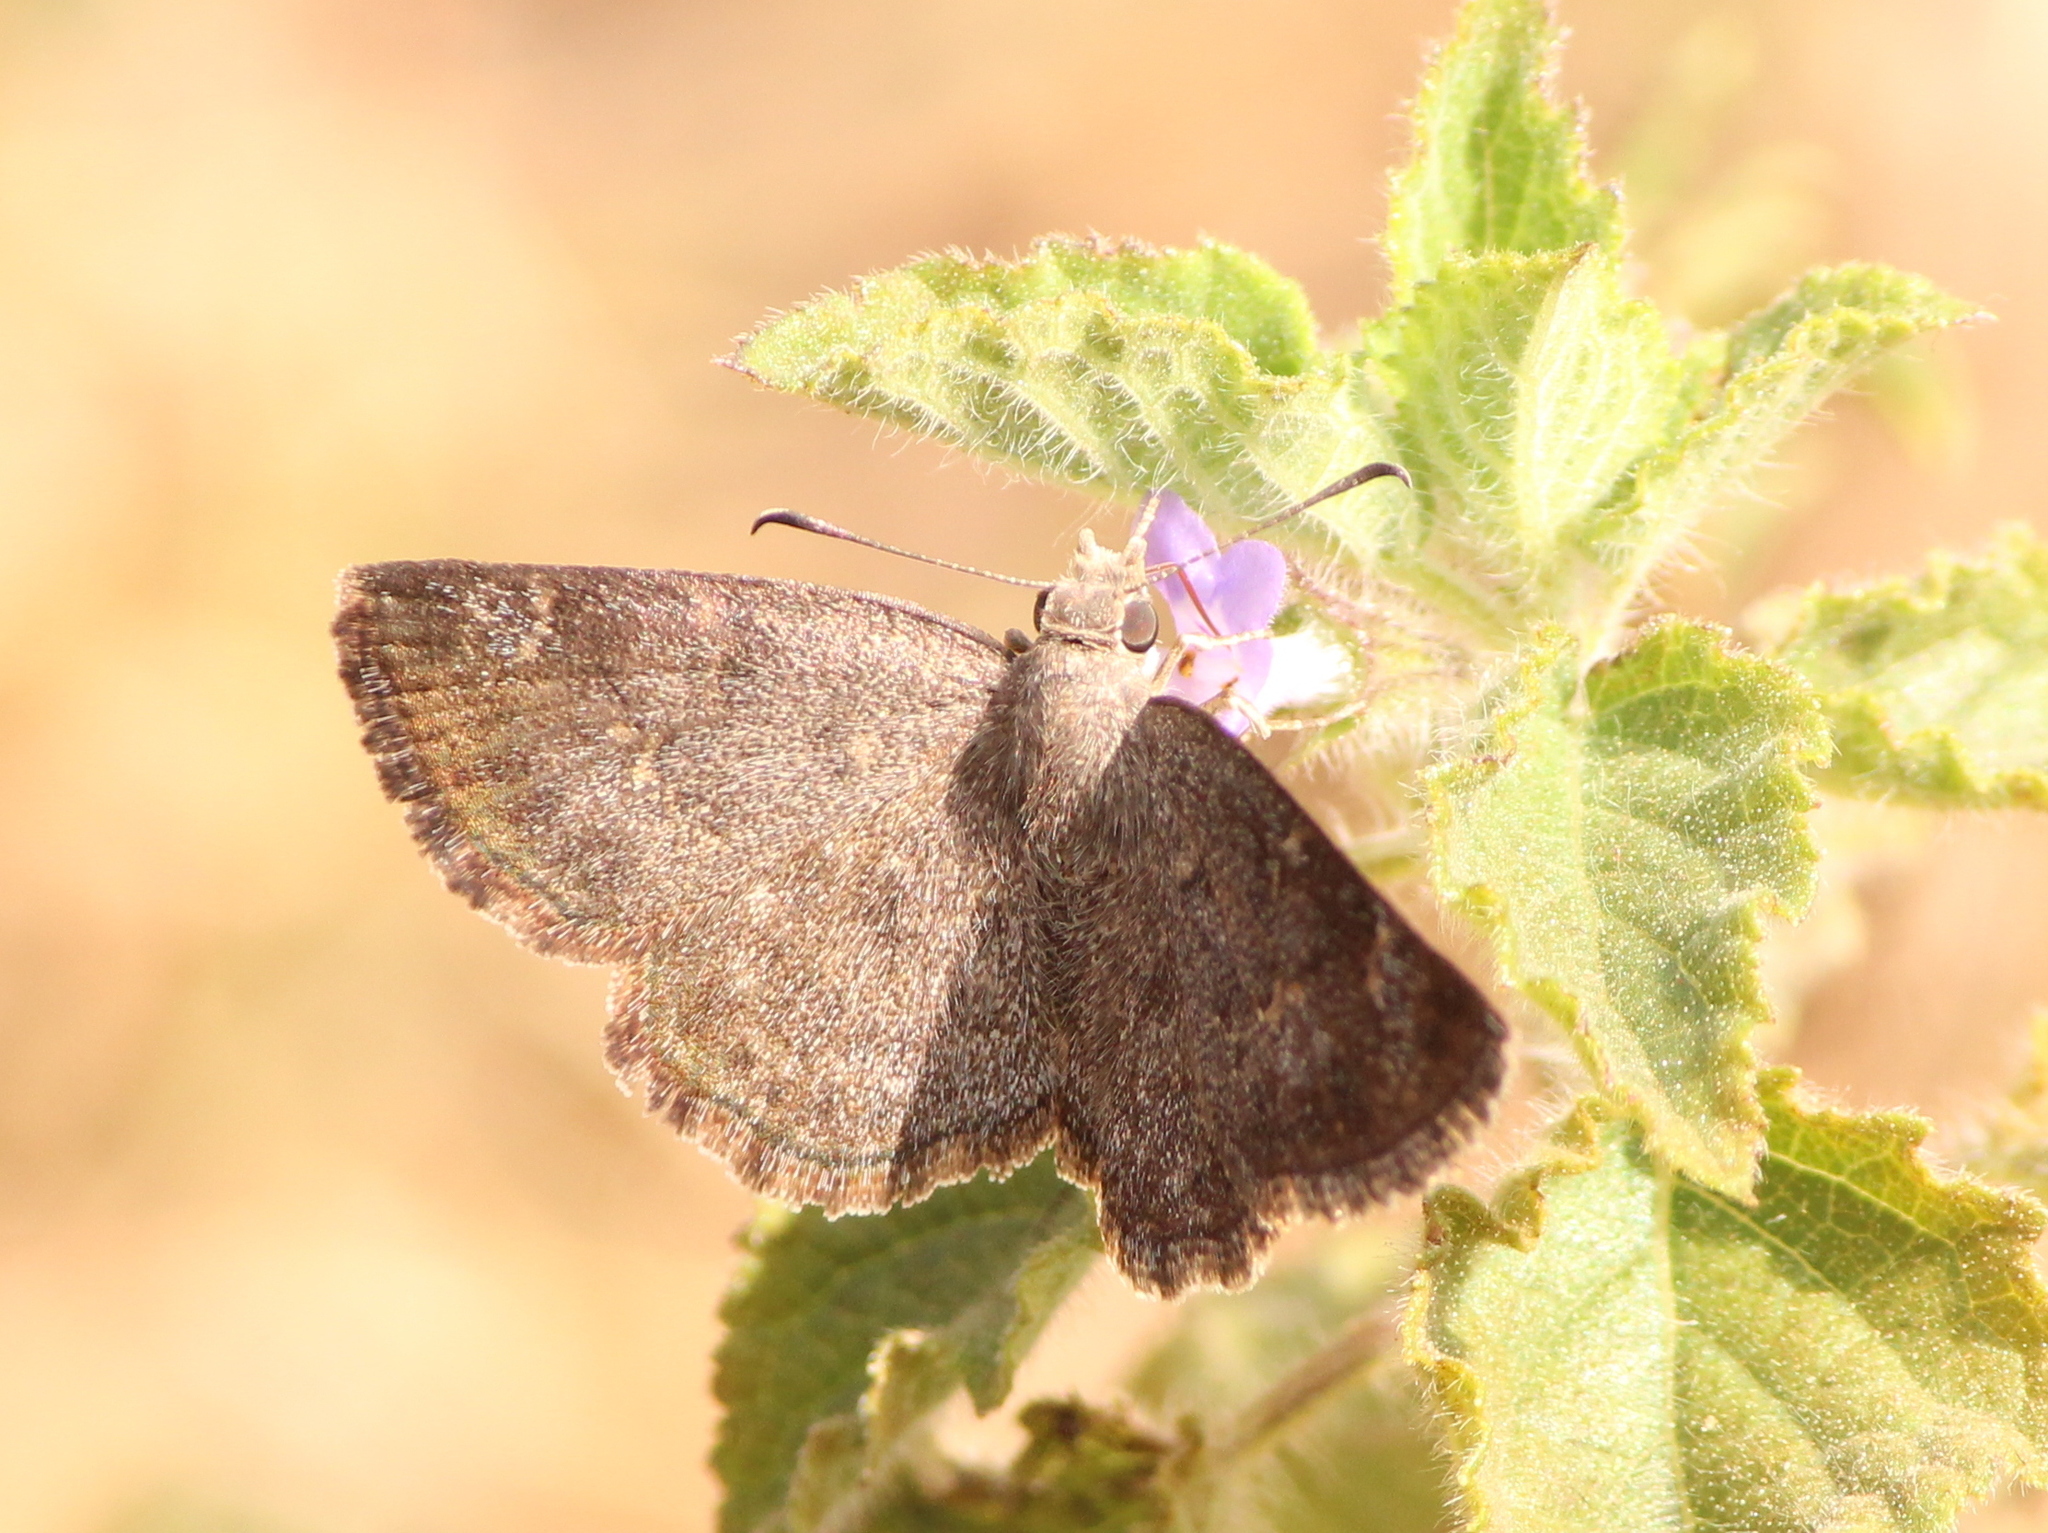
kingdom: Animalia
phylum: Arthropoda
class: Insecta
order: Lepidoptera
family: Hesperiidae
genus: Sarangesa
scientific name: Sarangesa purendra
